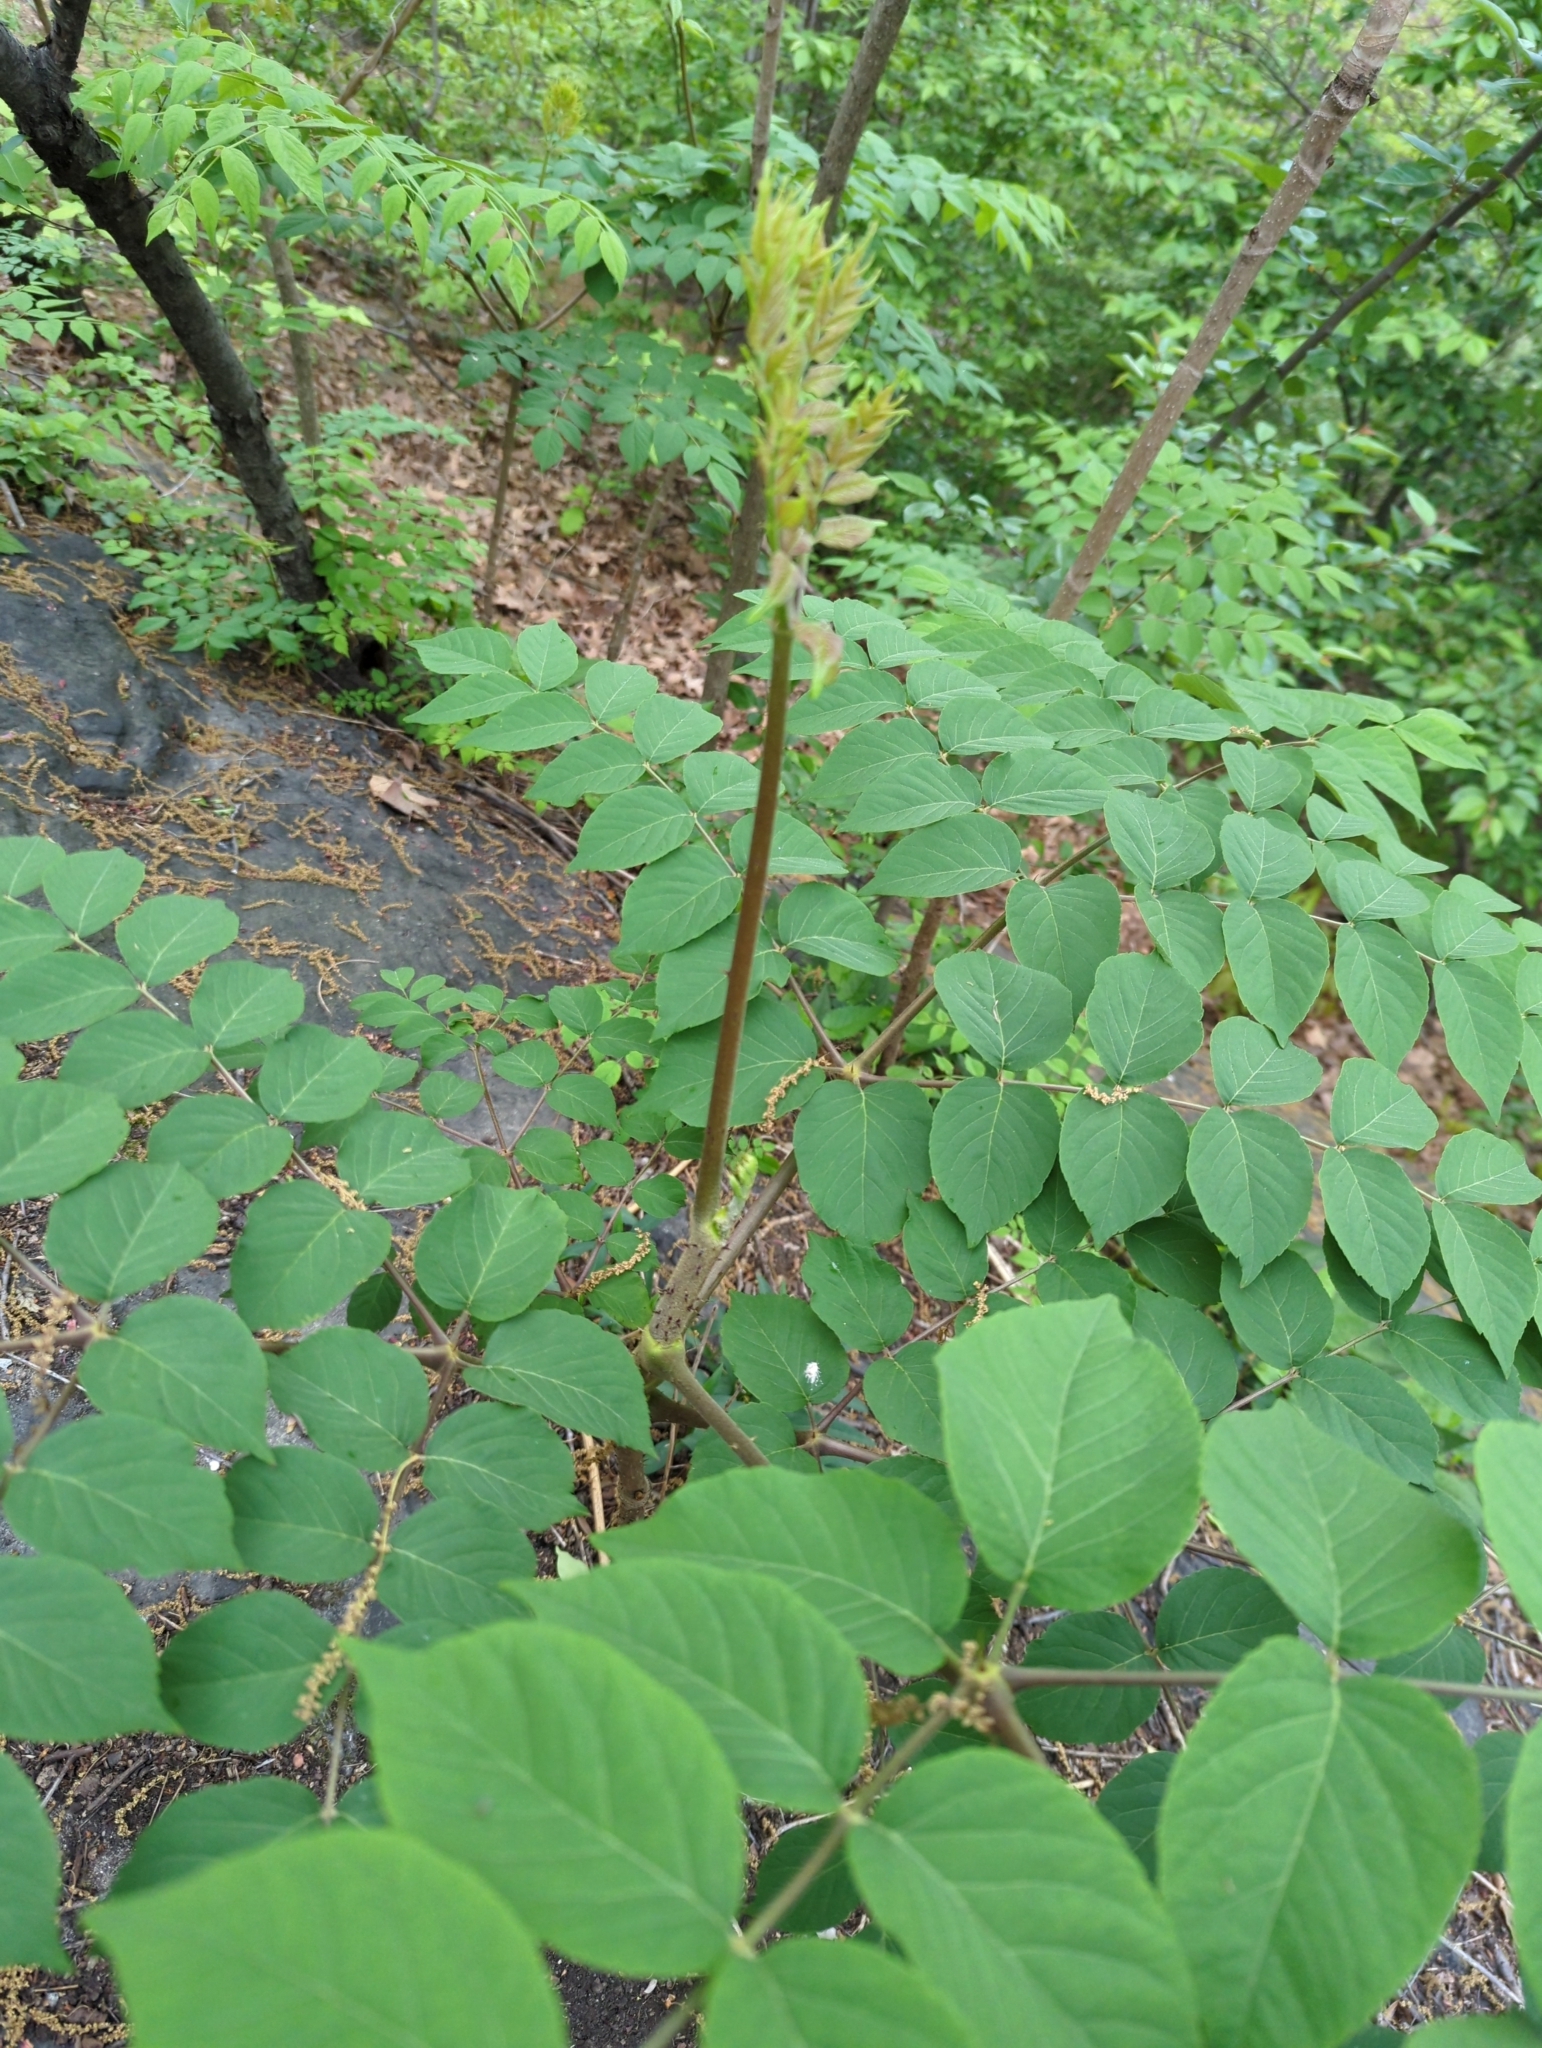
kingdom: Plantae
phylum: Tracheophyta
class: Magnoliopsida
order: Apiales
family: Araliaceae
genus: Aralia
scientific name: Aralia elata
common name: Japanese angelica-tree
